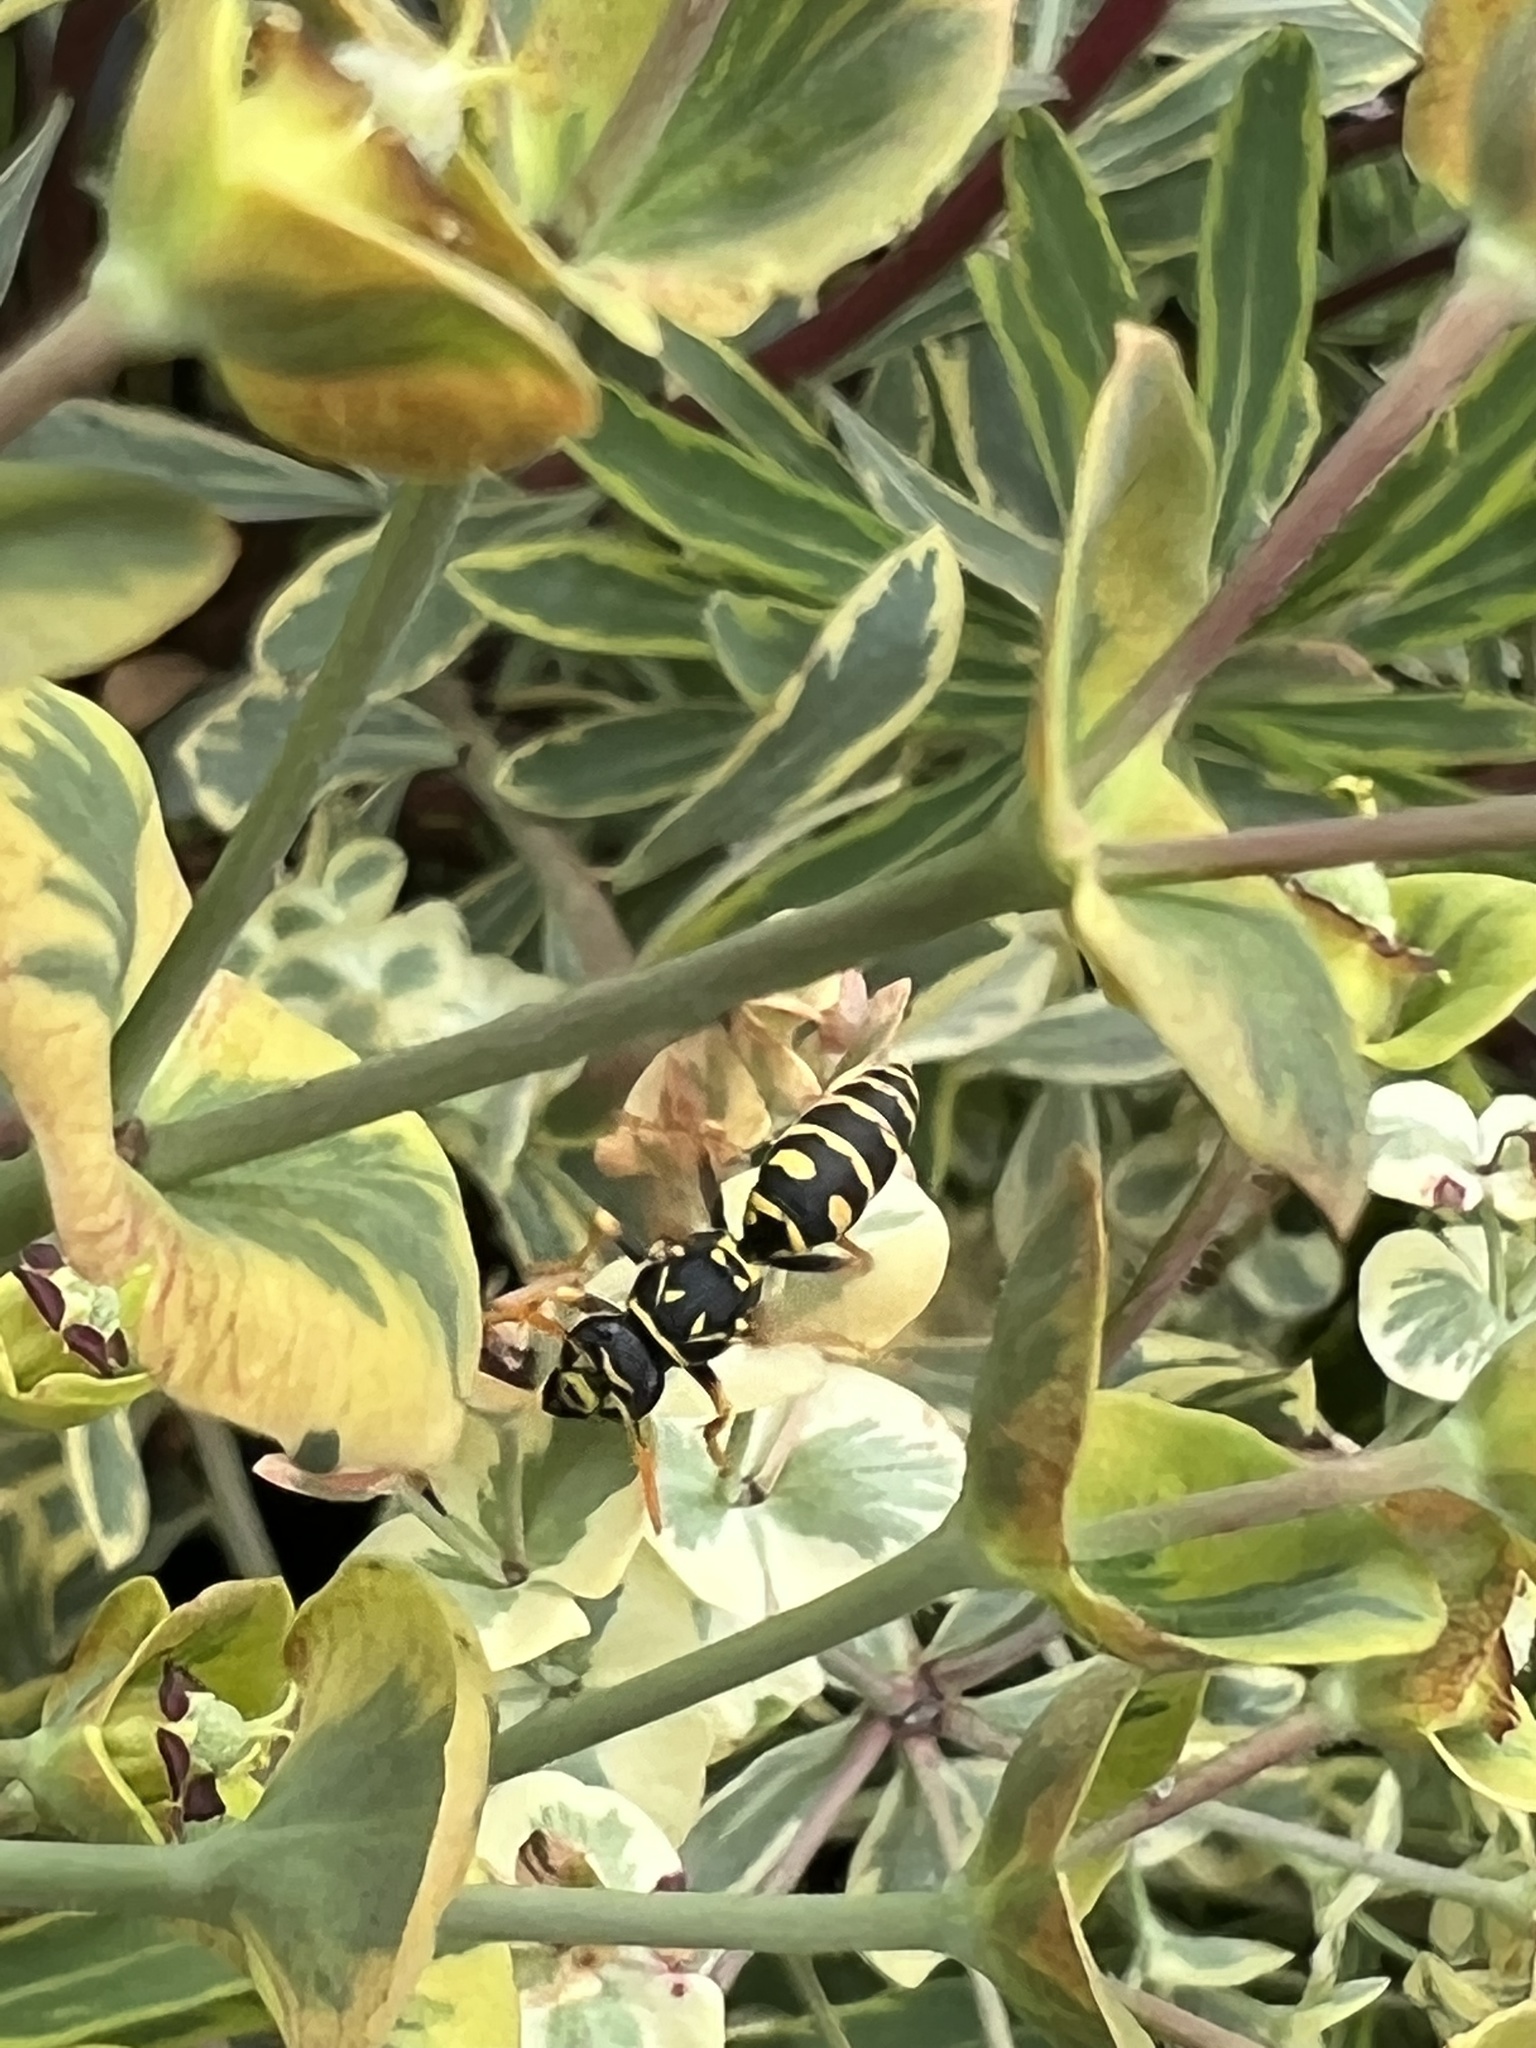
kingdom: Animalia
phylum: Arthropoda
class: Insecta
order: Hymenoptera
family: Eumenidae
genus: Polistes
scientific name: Polistes dominula
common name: Paper wasp
